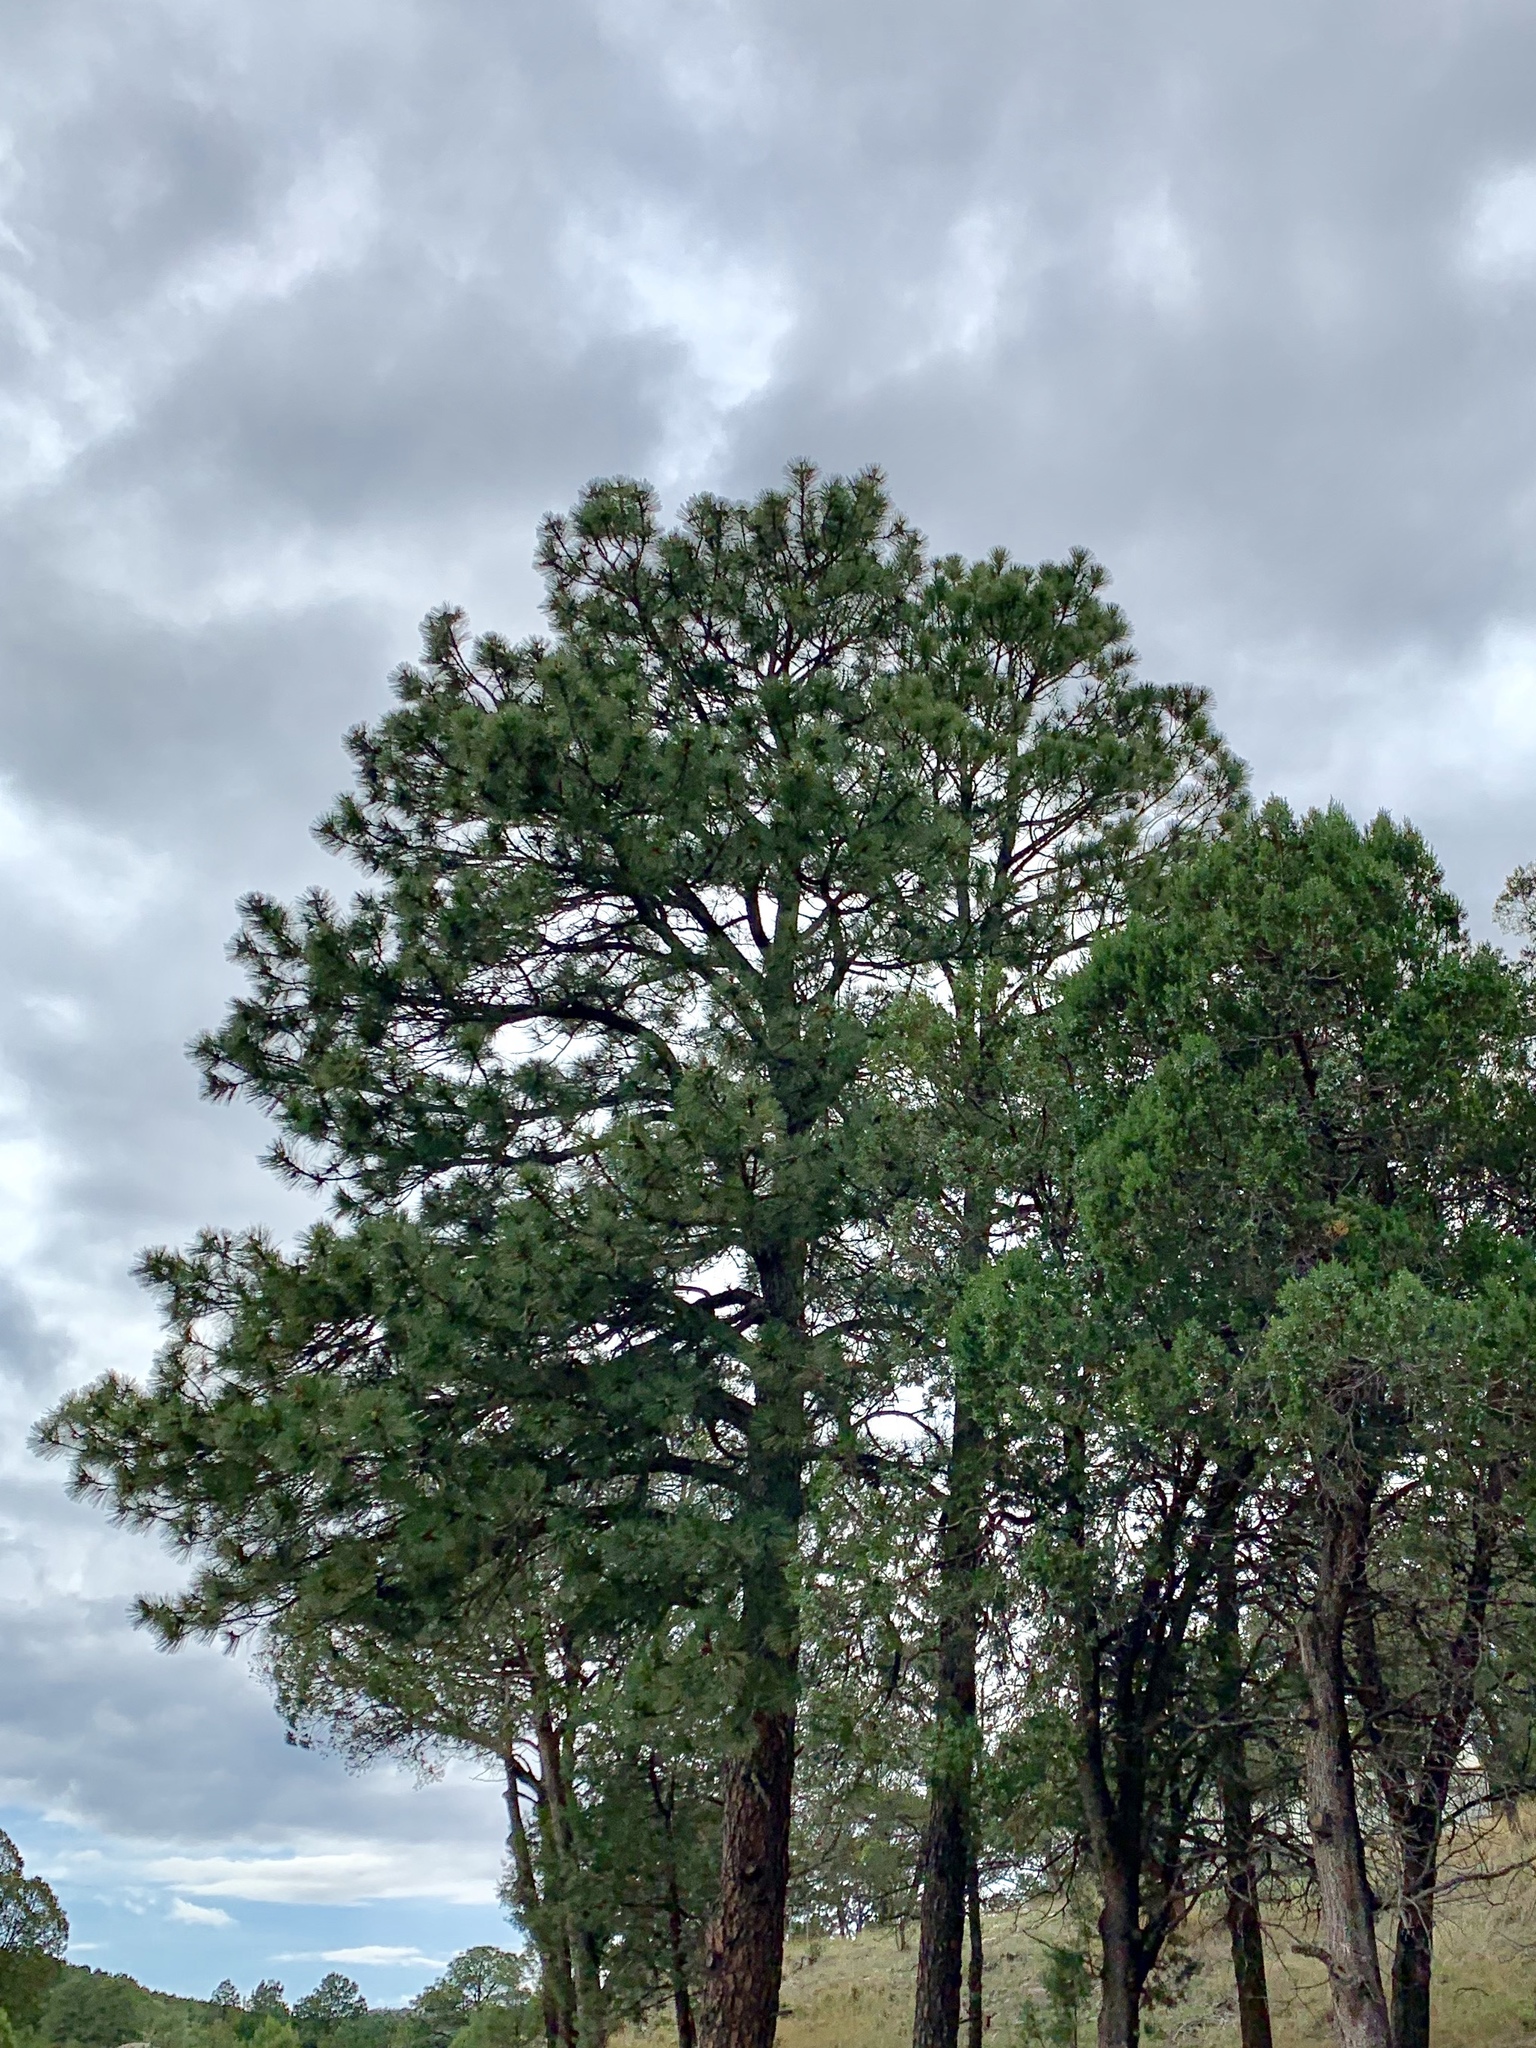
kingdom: Plantae
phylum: Tracheophyta
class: Pinopsida
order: Pinales
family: Pinaceae
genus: Pinus
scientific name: Pinus ponderosa
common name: Western yellow-pine
